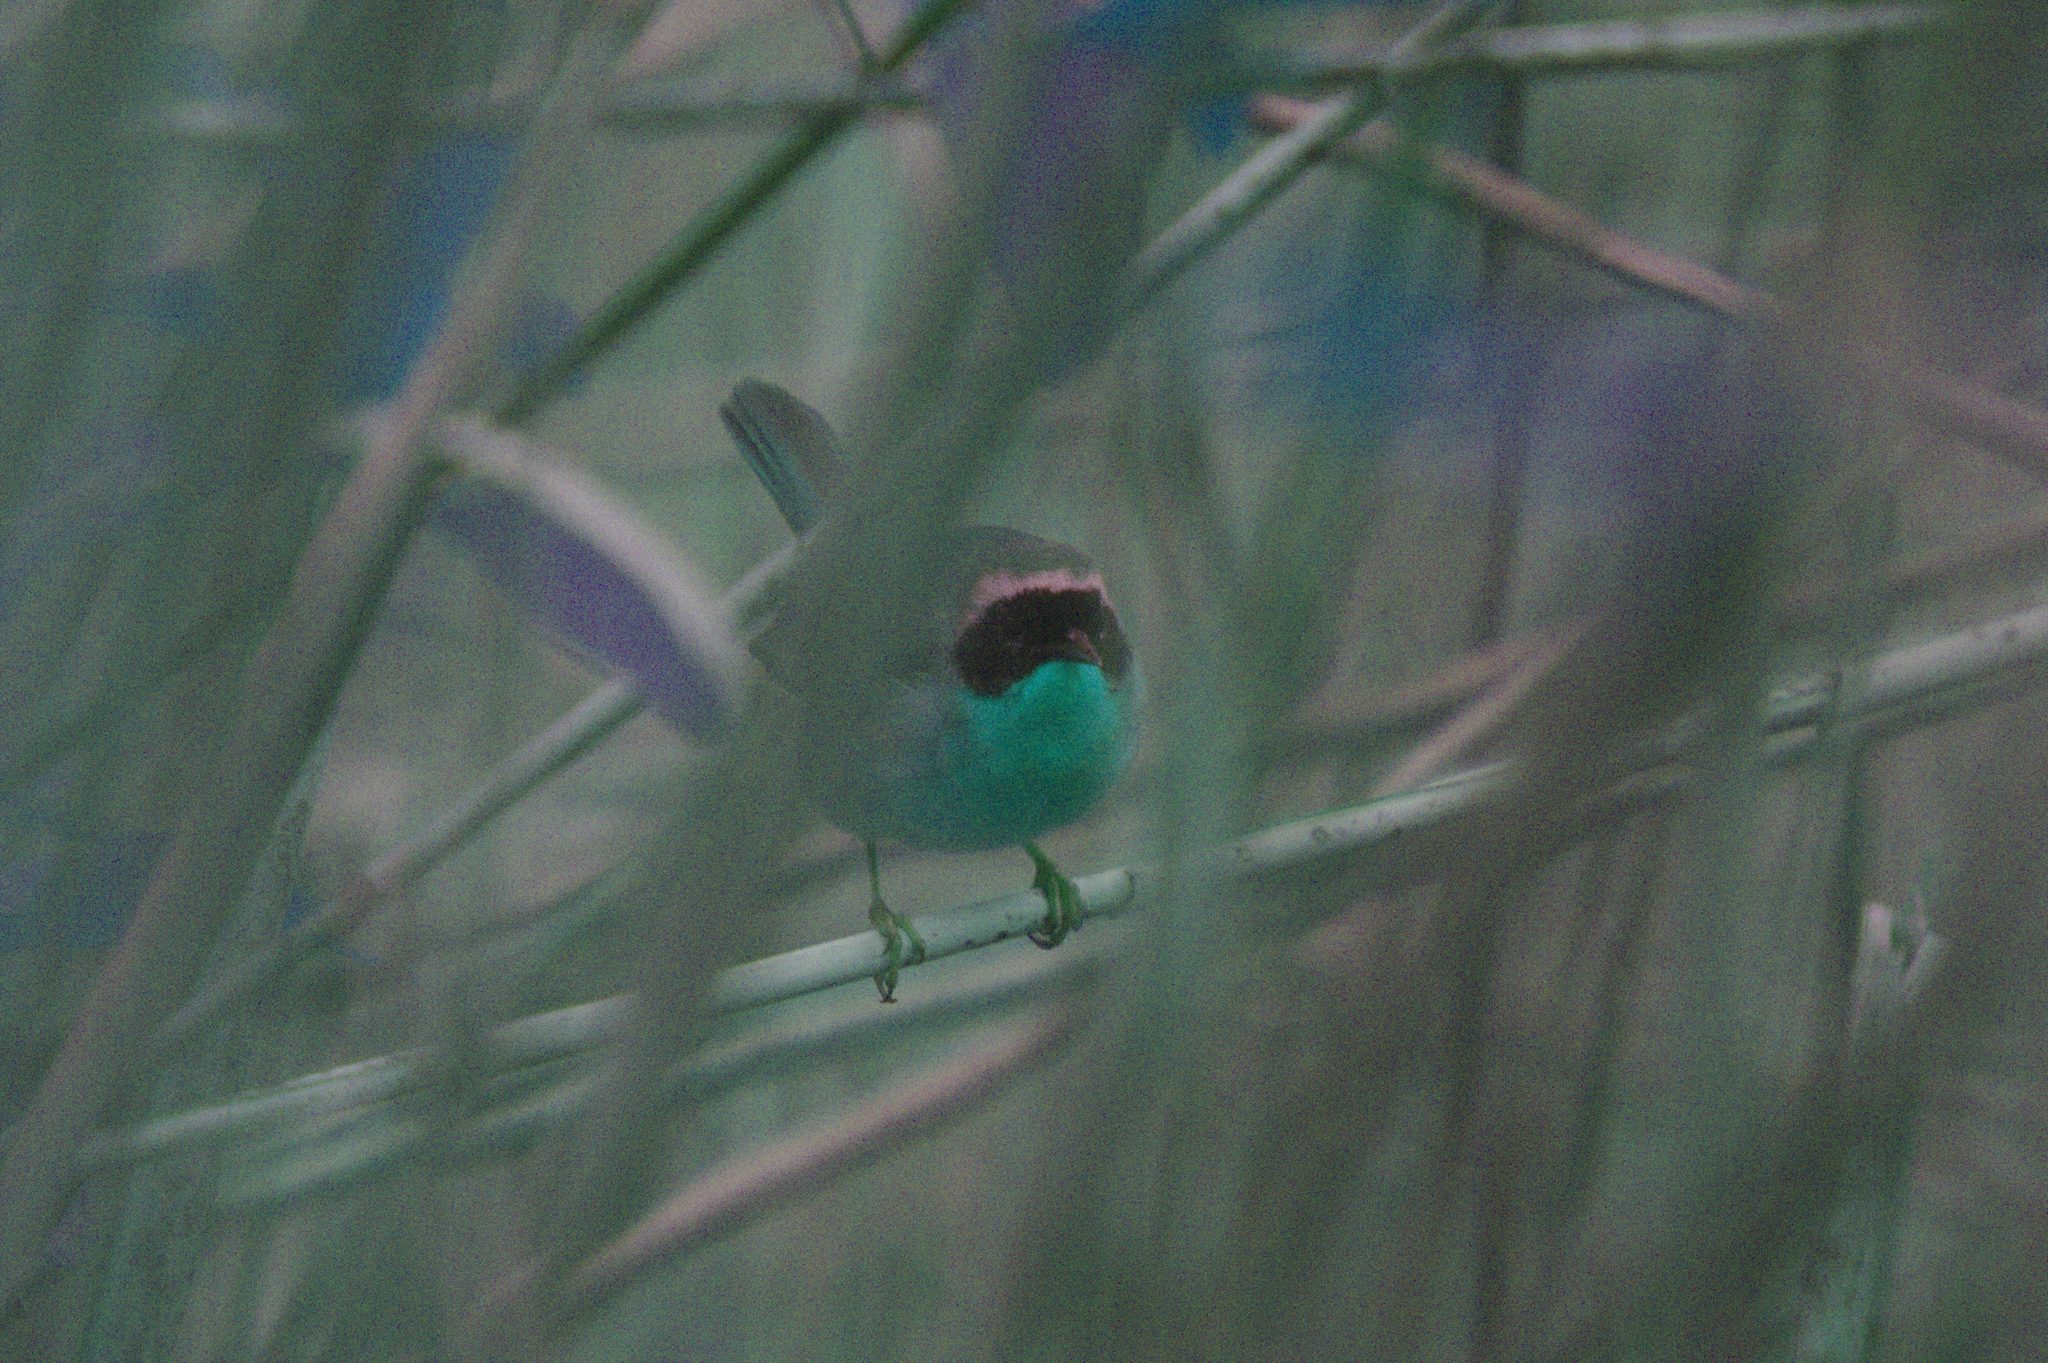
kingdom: Animalia
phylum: Chordata
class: Aves
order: Passeriformes
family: Parulidae
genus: Geothlypis
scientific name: Geothlypis trichas
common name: Common yellowthroat
